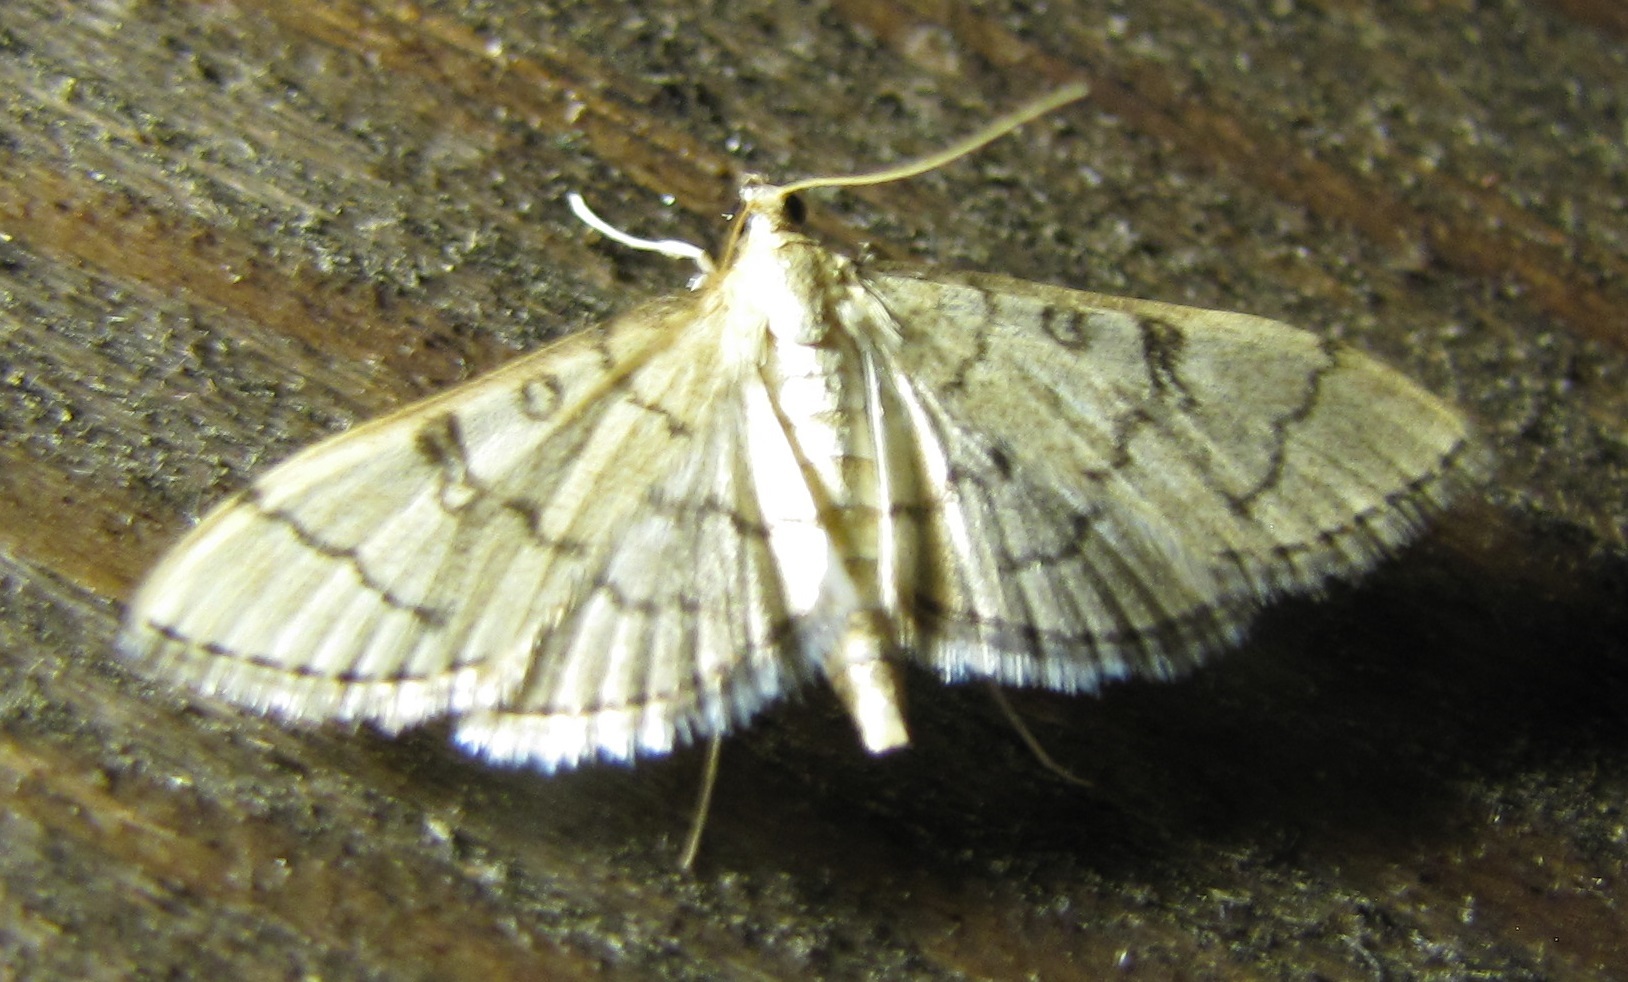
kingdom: Animalia
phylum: Arthropoda
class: Insecta
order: Lepidoptera
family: Crambidae
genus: Lamprosema
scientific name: Lamprosema Blepharomastix ranalis
